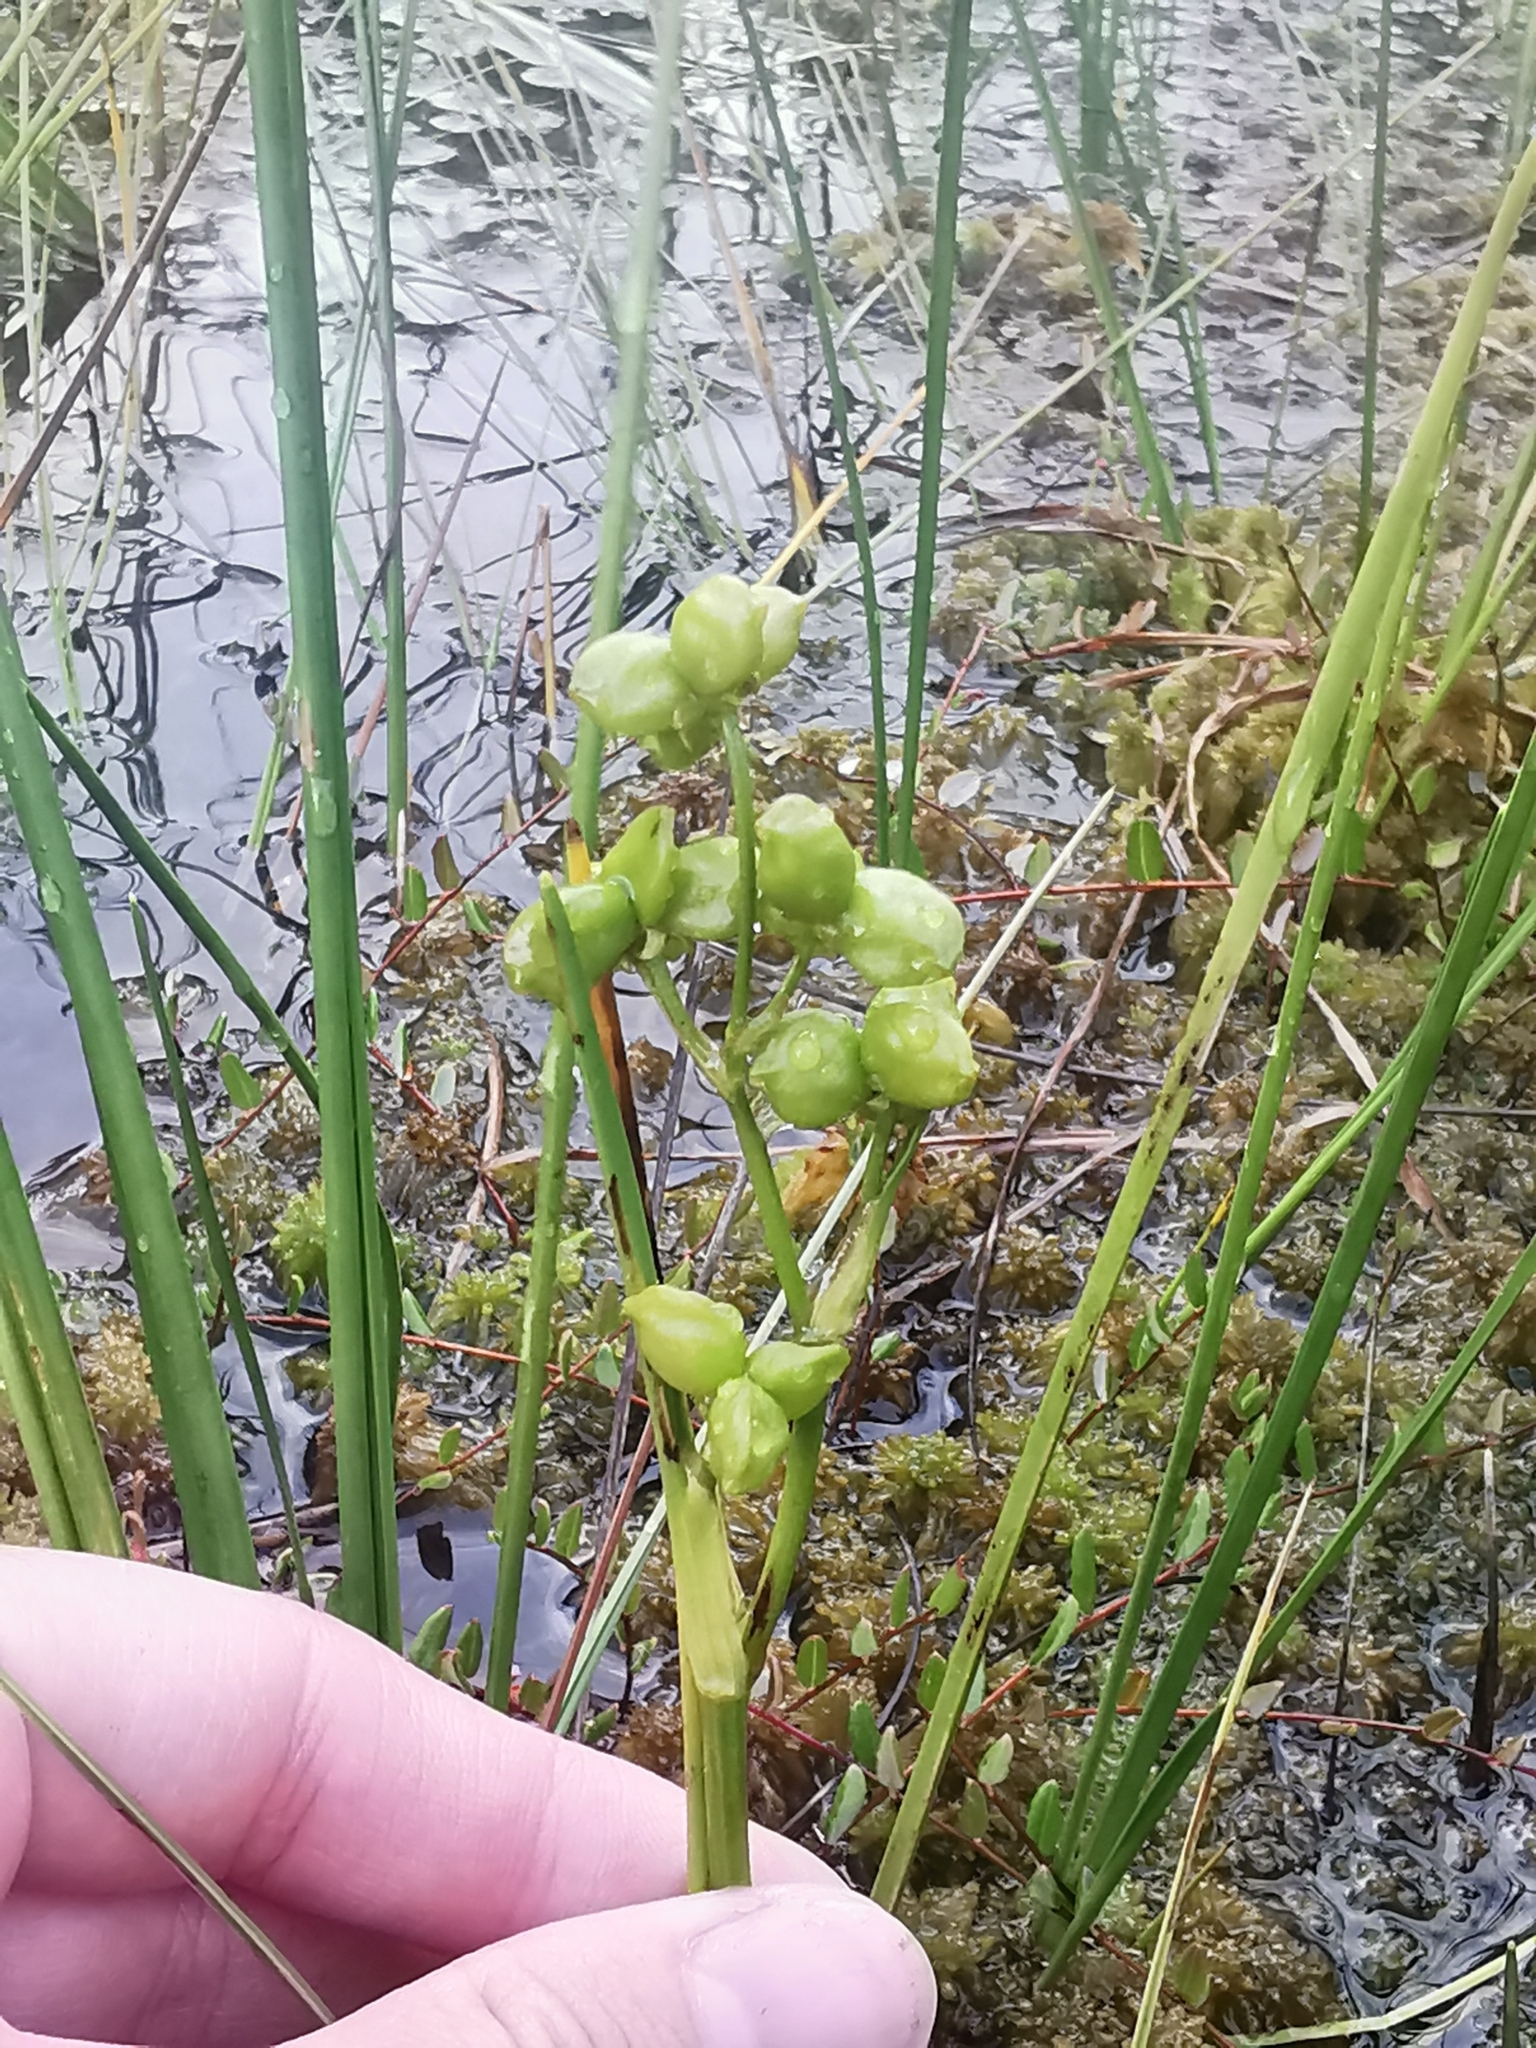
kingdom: Plantae
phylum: Tracheophyta
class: Liliopsida
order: Alismatales
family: Scheuchzeriaceae
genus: Scheuchzeria
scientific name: Scheuchzeria palustris
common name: Rannoch-rush
